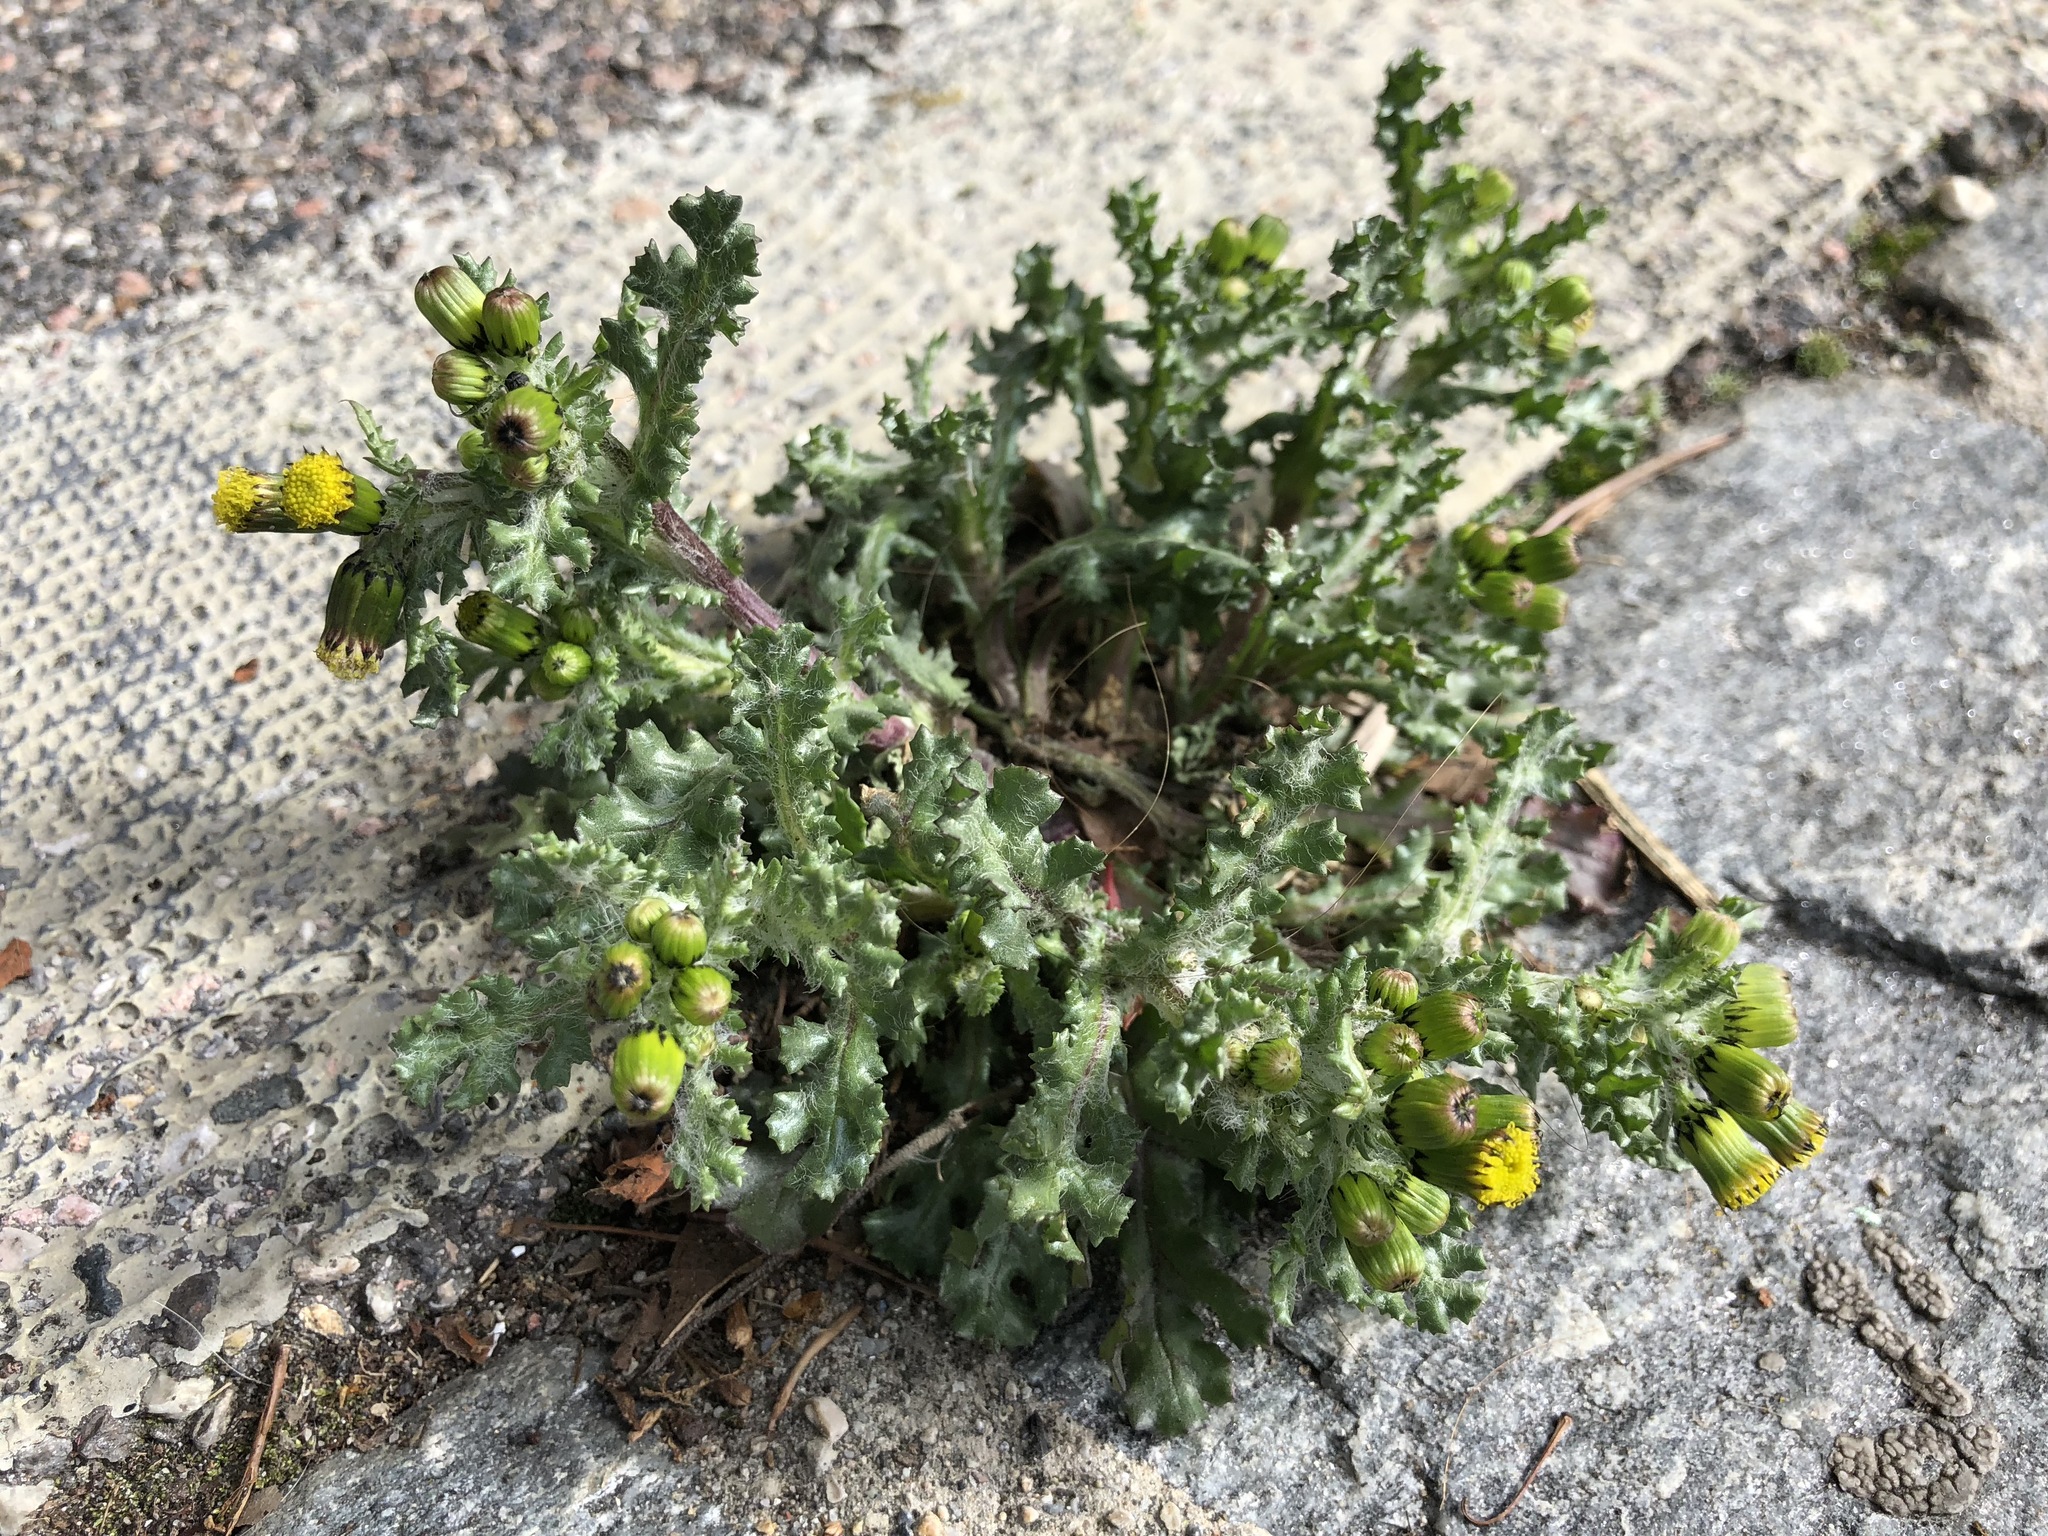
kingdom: Plantae
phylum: Tracheophyta
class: Magnoliopsida
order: Asterales
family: Asteraceae
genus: Senecio
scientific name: Senecio vulgaris
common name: Old-man-in-the-spring
